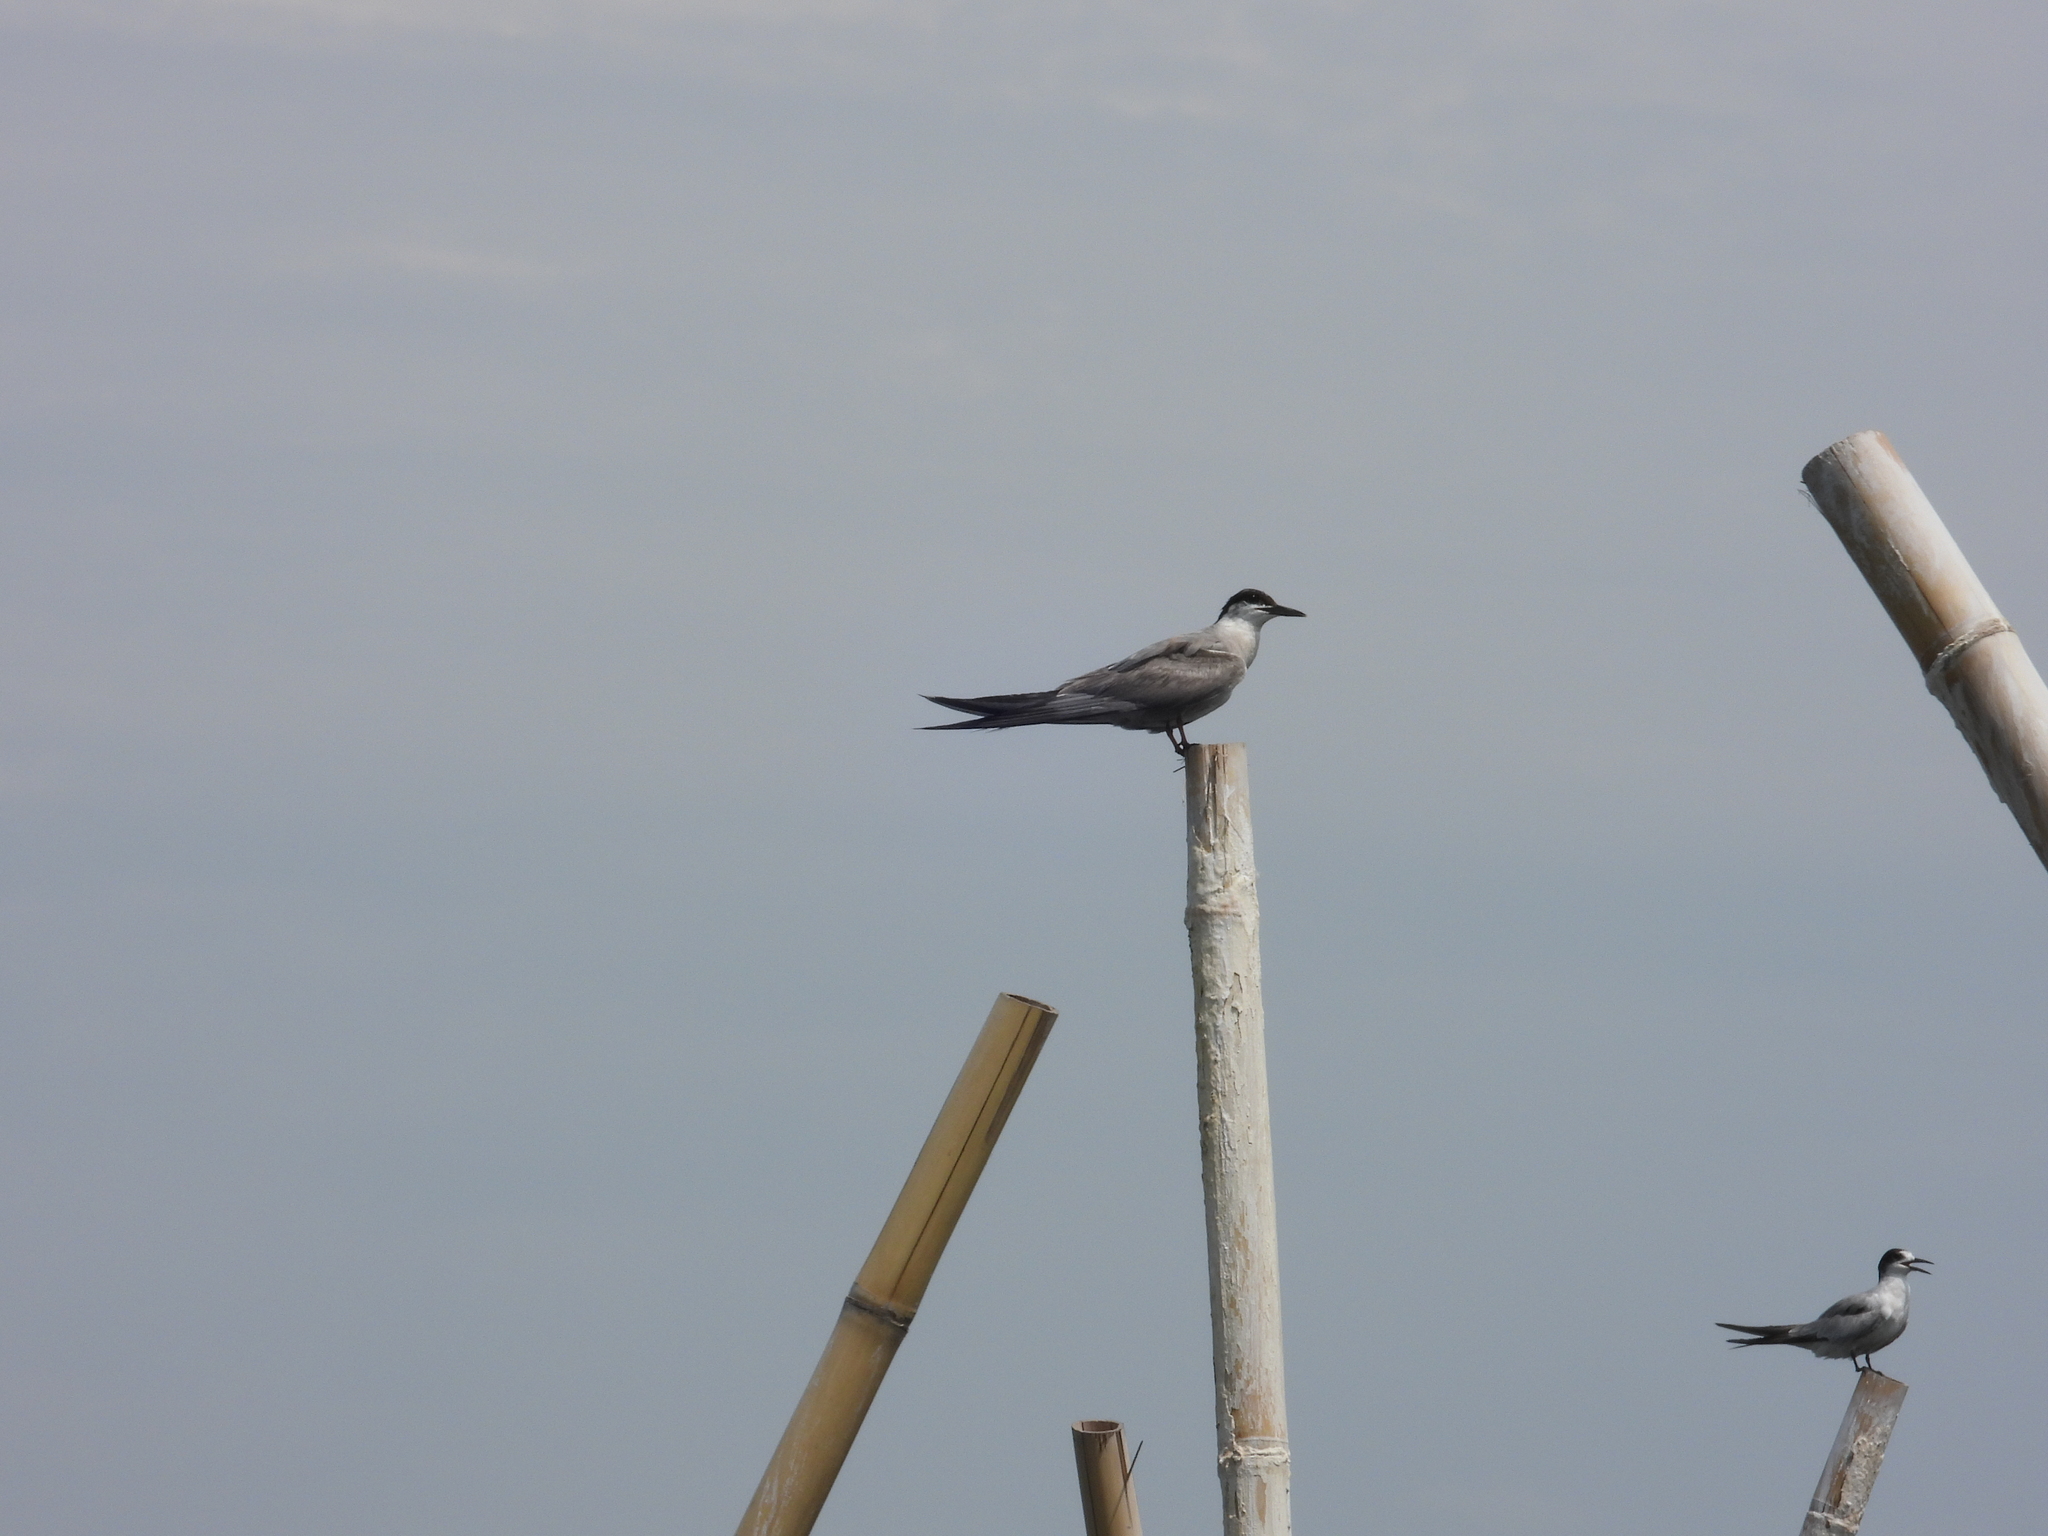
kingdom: Animalia
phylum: Chordata
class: Aves
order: Charadriiformes
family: Laridae
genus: Sterna
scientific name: Sterna hirundo
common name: Common tern
